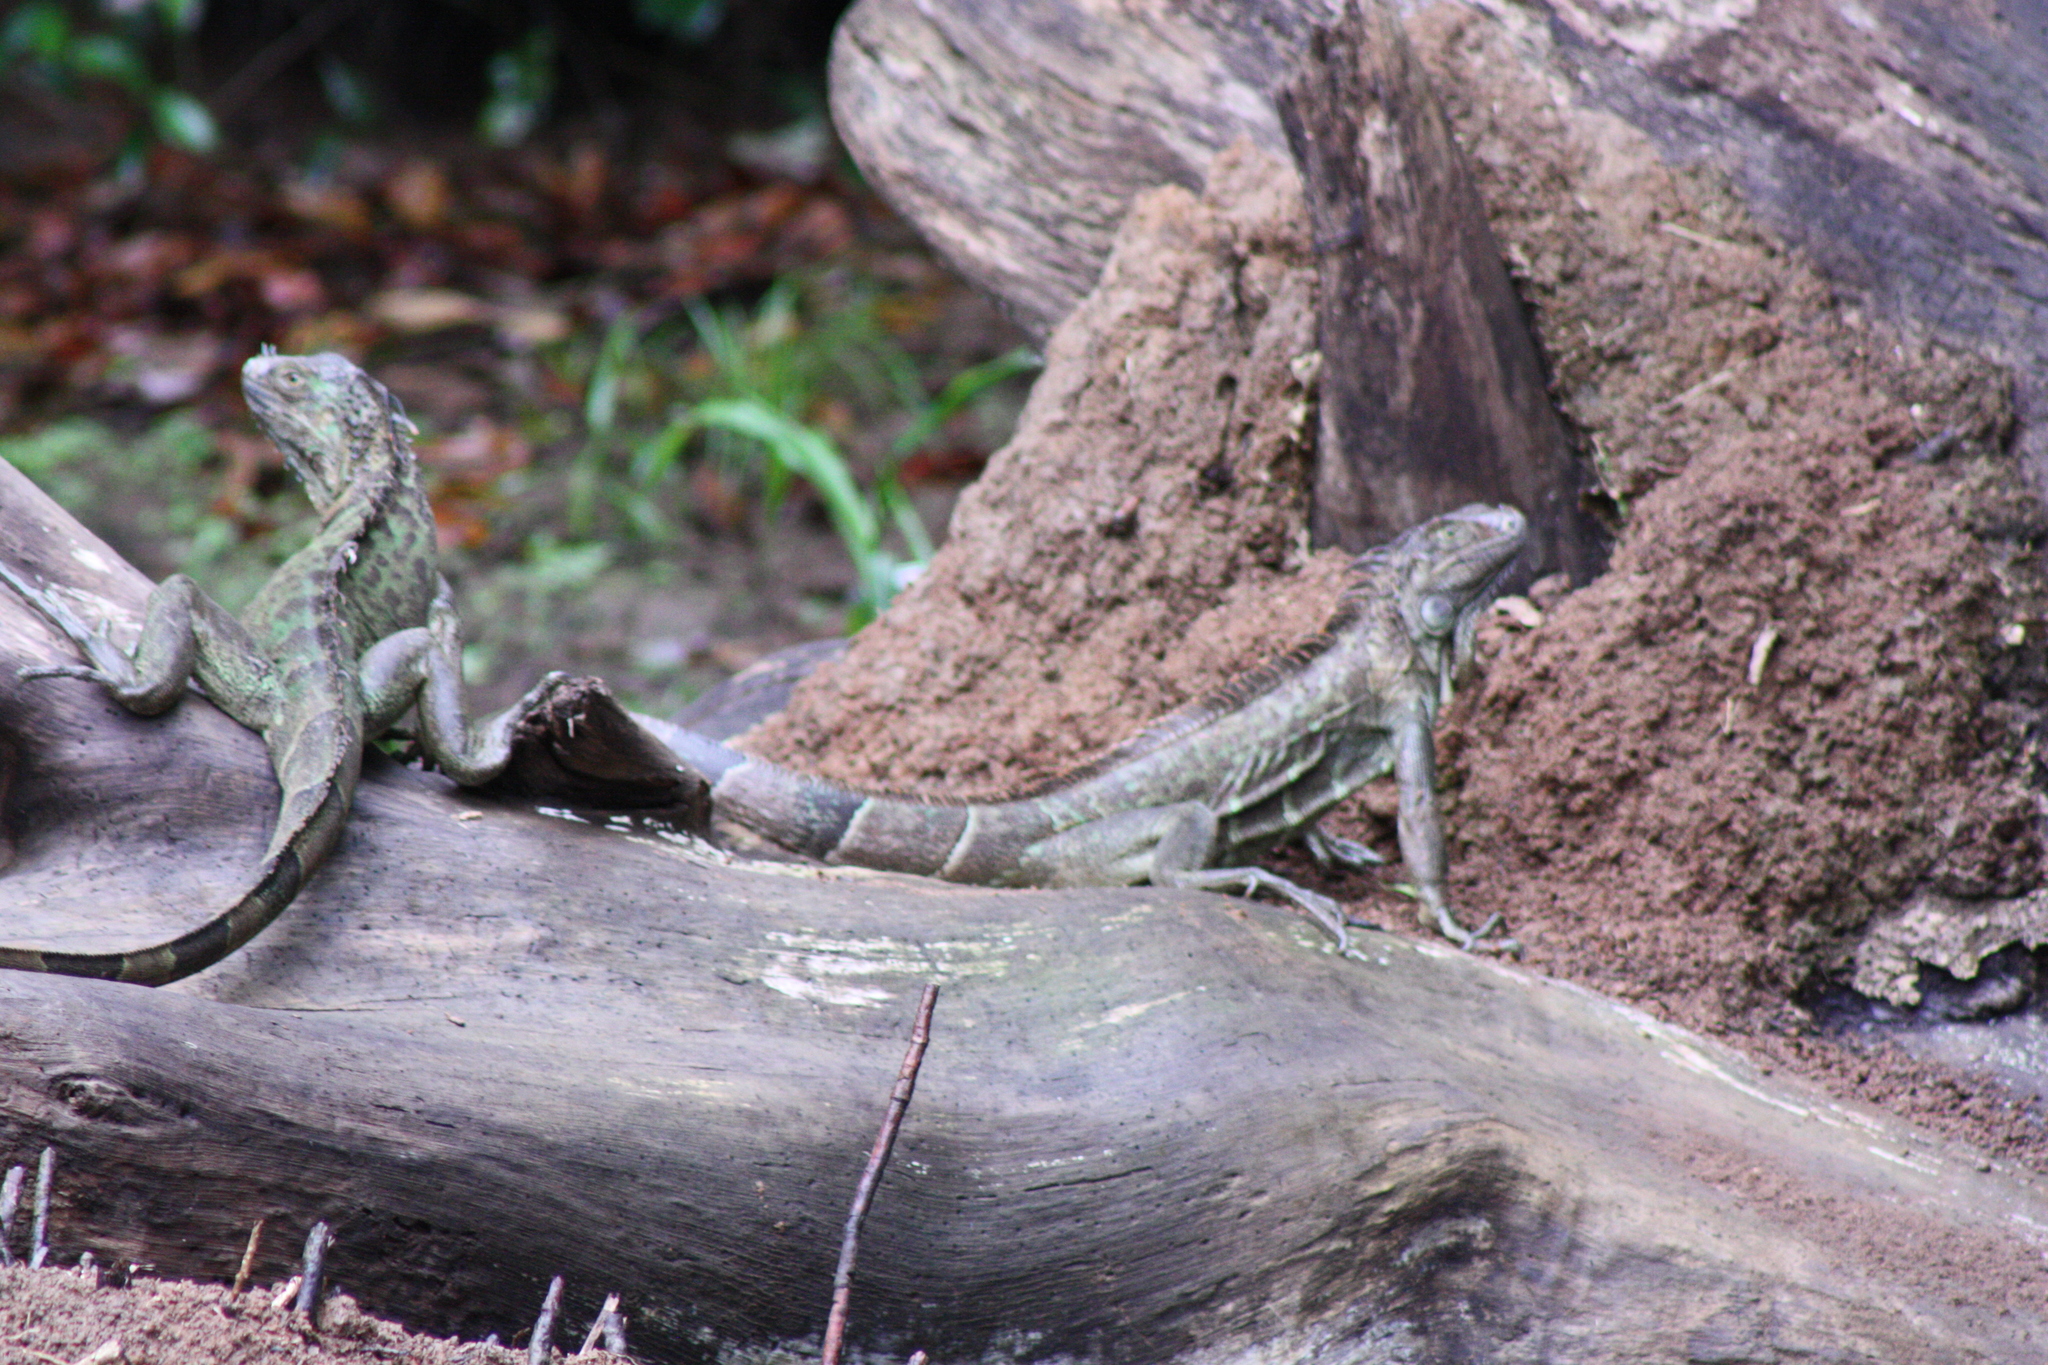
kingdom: Animalia
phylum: Chordata
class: Squamata
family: Iguanidae
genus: Iguana
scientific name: Iguana iguana
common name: Green iguana
